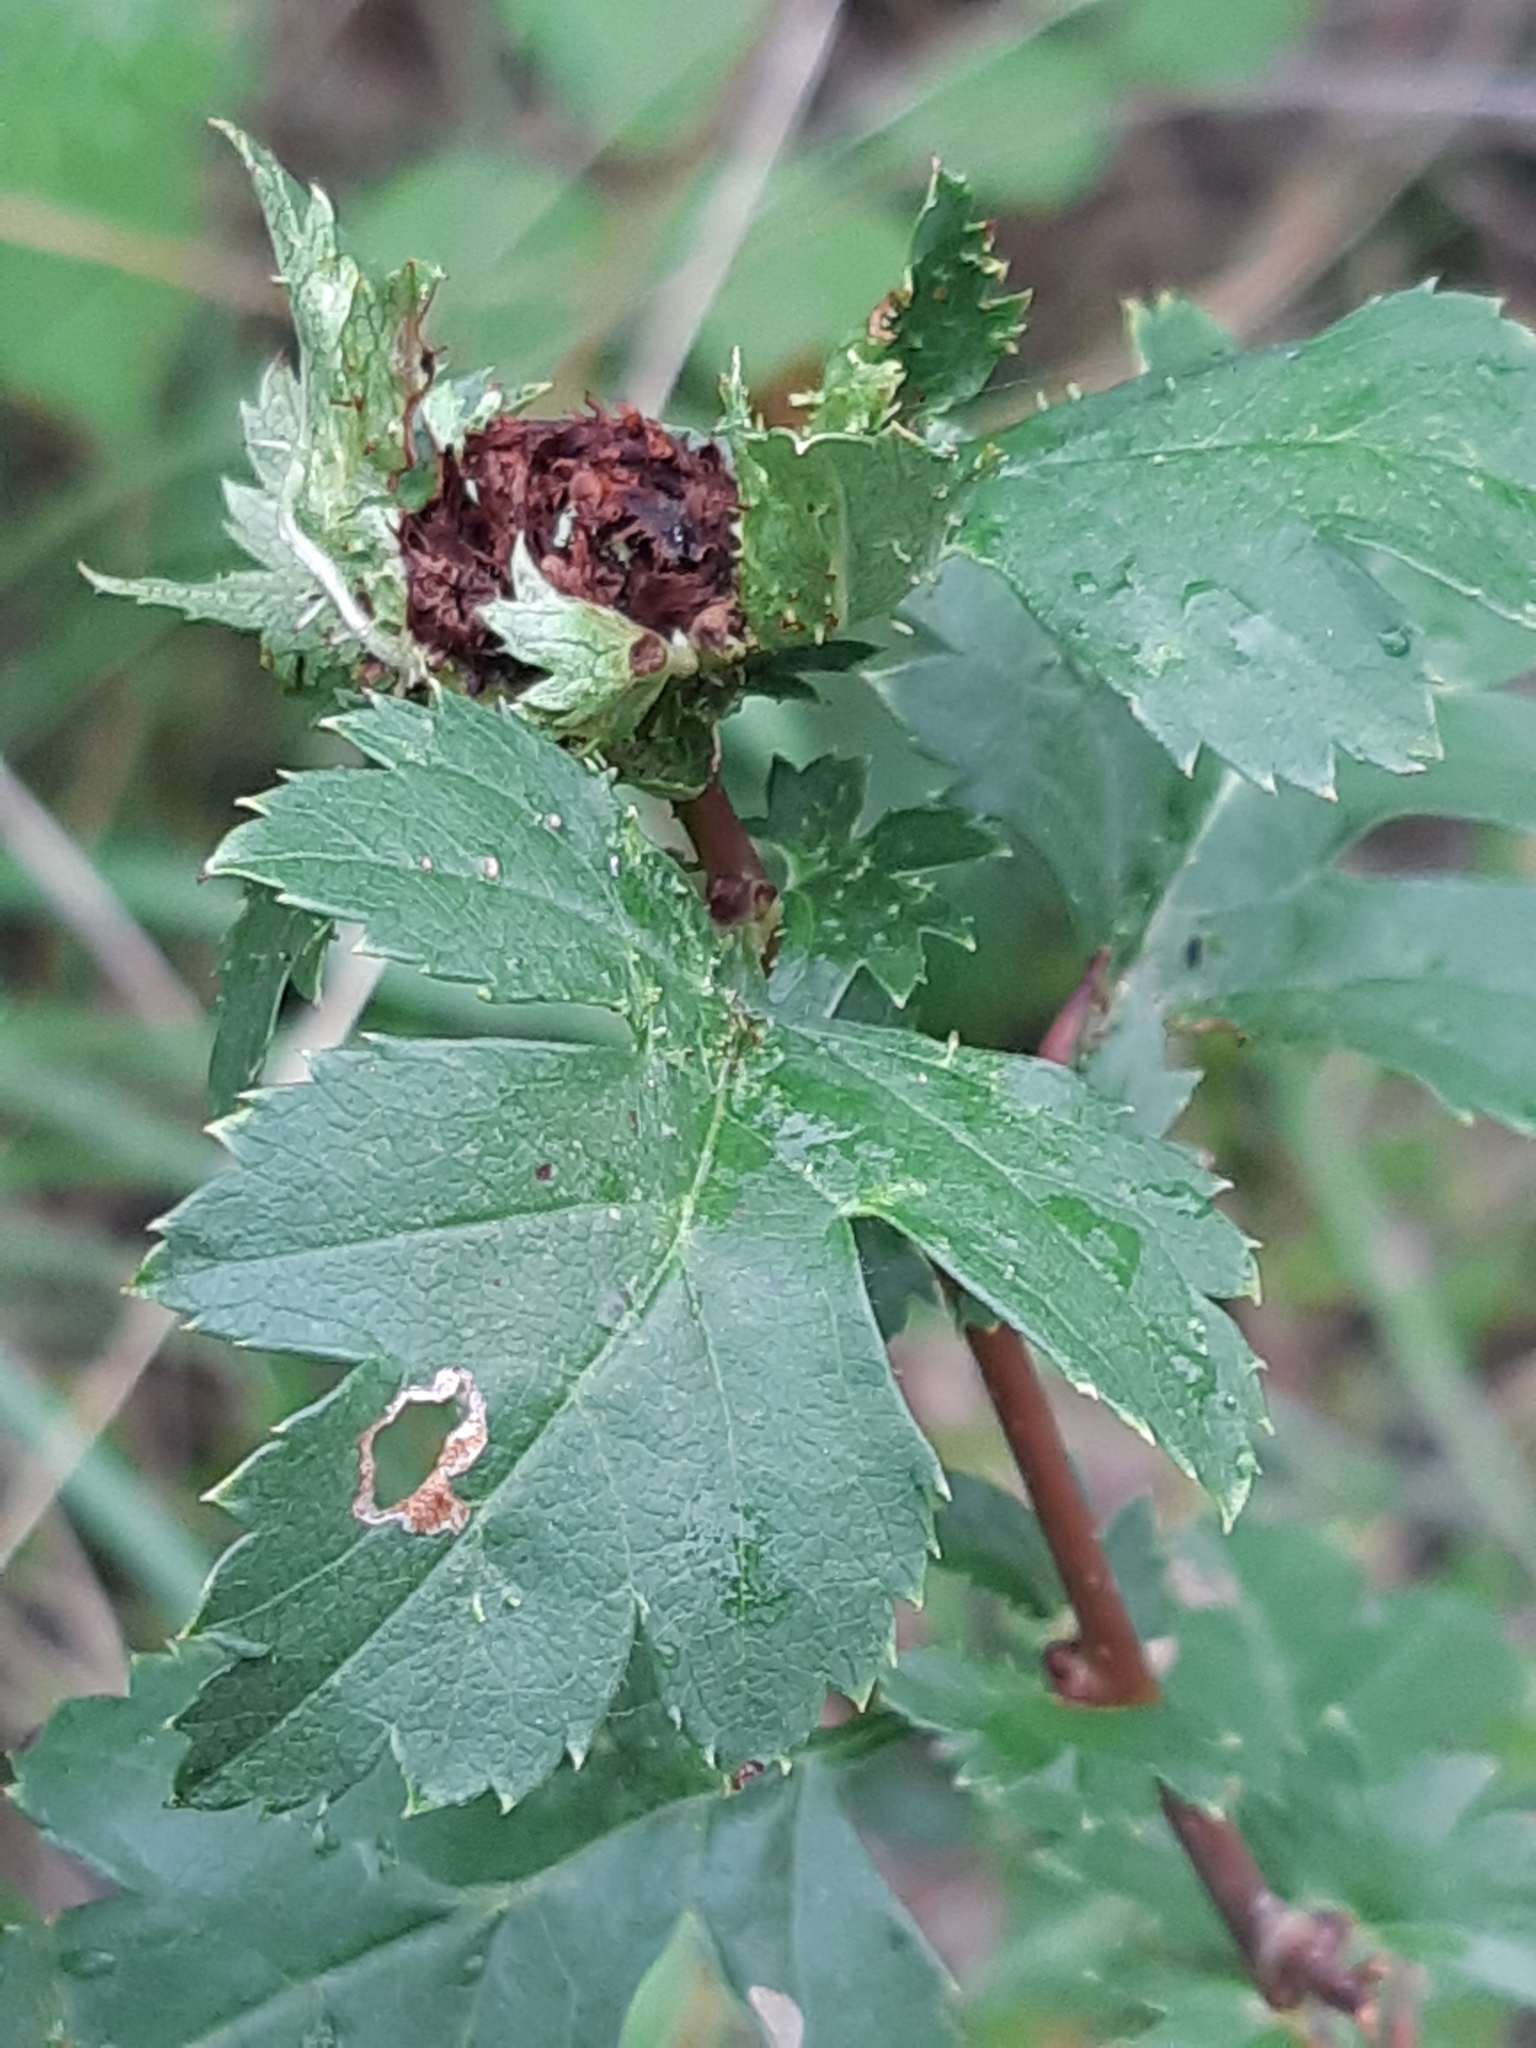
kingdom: Animalia
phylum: Arthropoda
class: Insecta
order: Diptera
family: Cecidomyiidae
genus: Dasineura
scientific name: Dasineura crataegi
